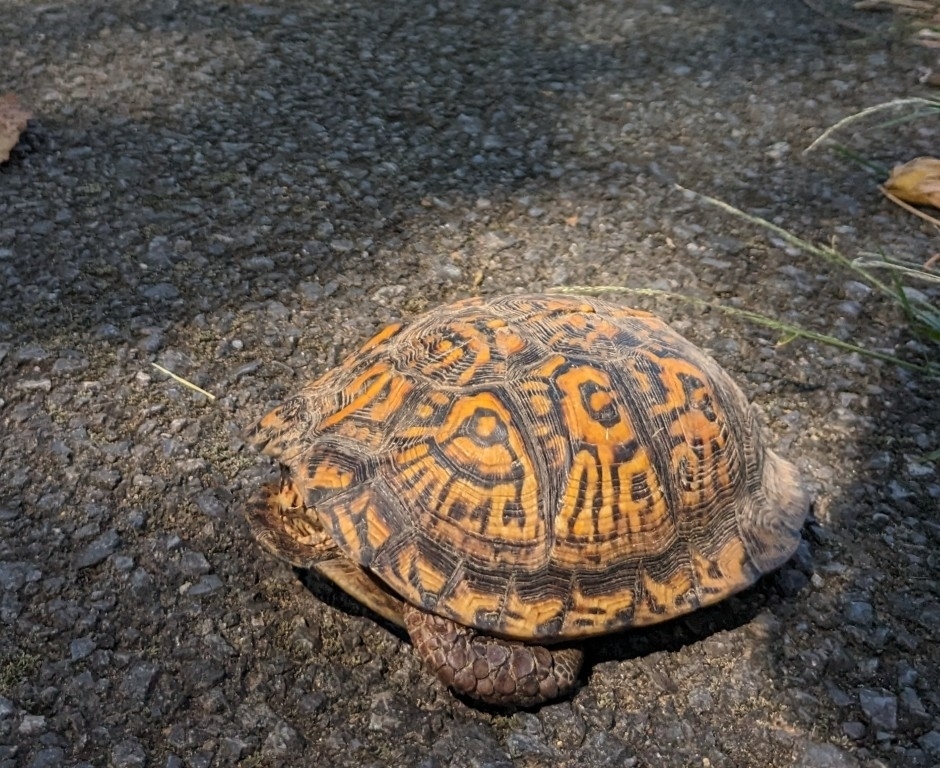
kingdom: Animalia
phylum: Chordata
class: Testudines
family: Emydidae
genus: Terrapene
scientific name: Terrapene carolina
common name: Common box turtle
